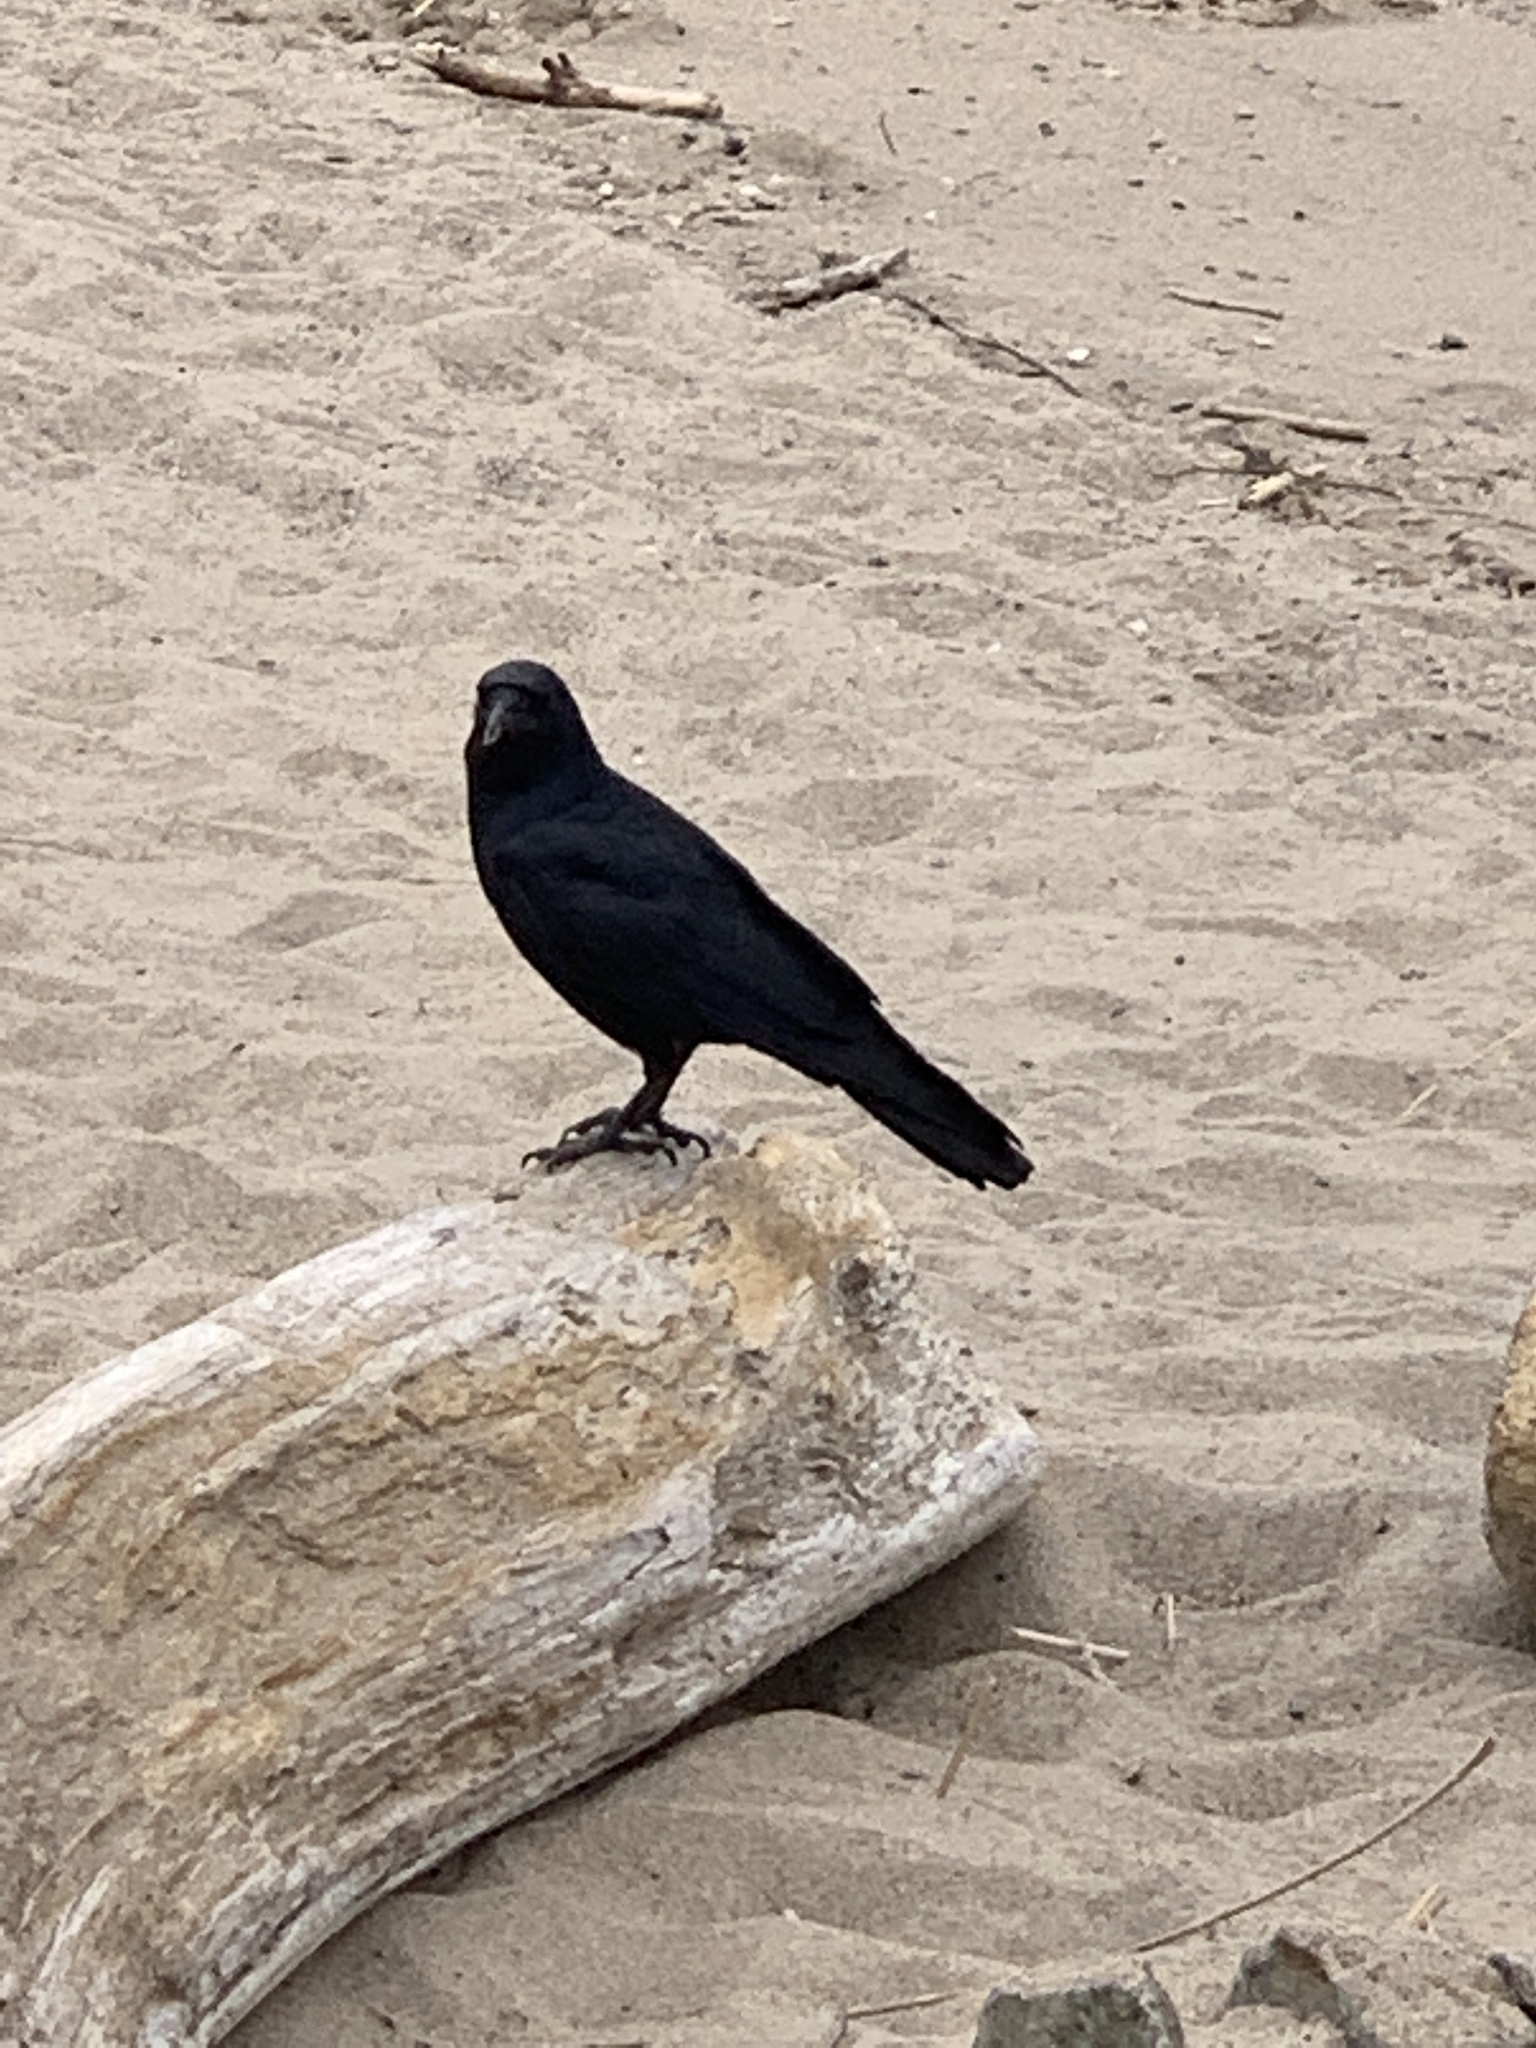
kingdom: Animalia
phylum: Chordata
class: Aves
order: Passeriformes
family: Corvidae
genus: Corvus
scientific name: Corvus ossifragus
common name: Fish crow
